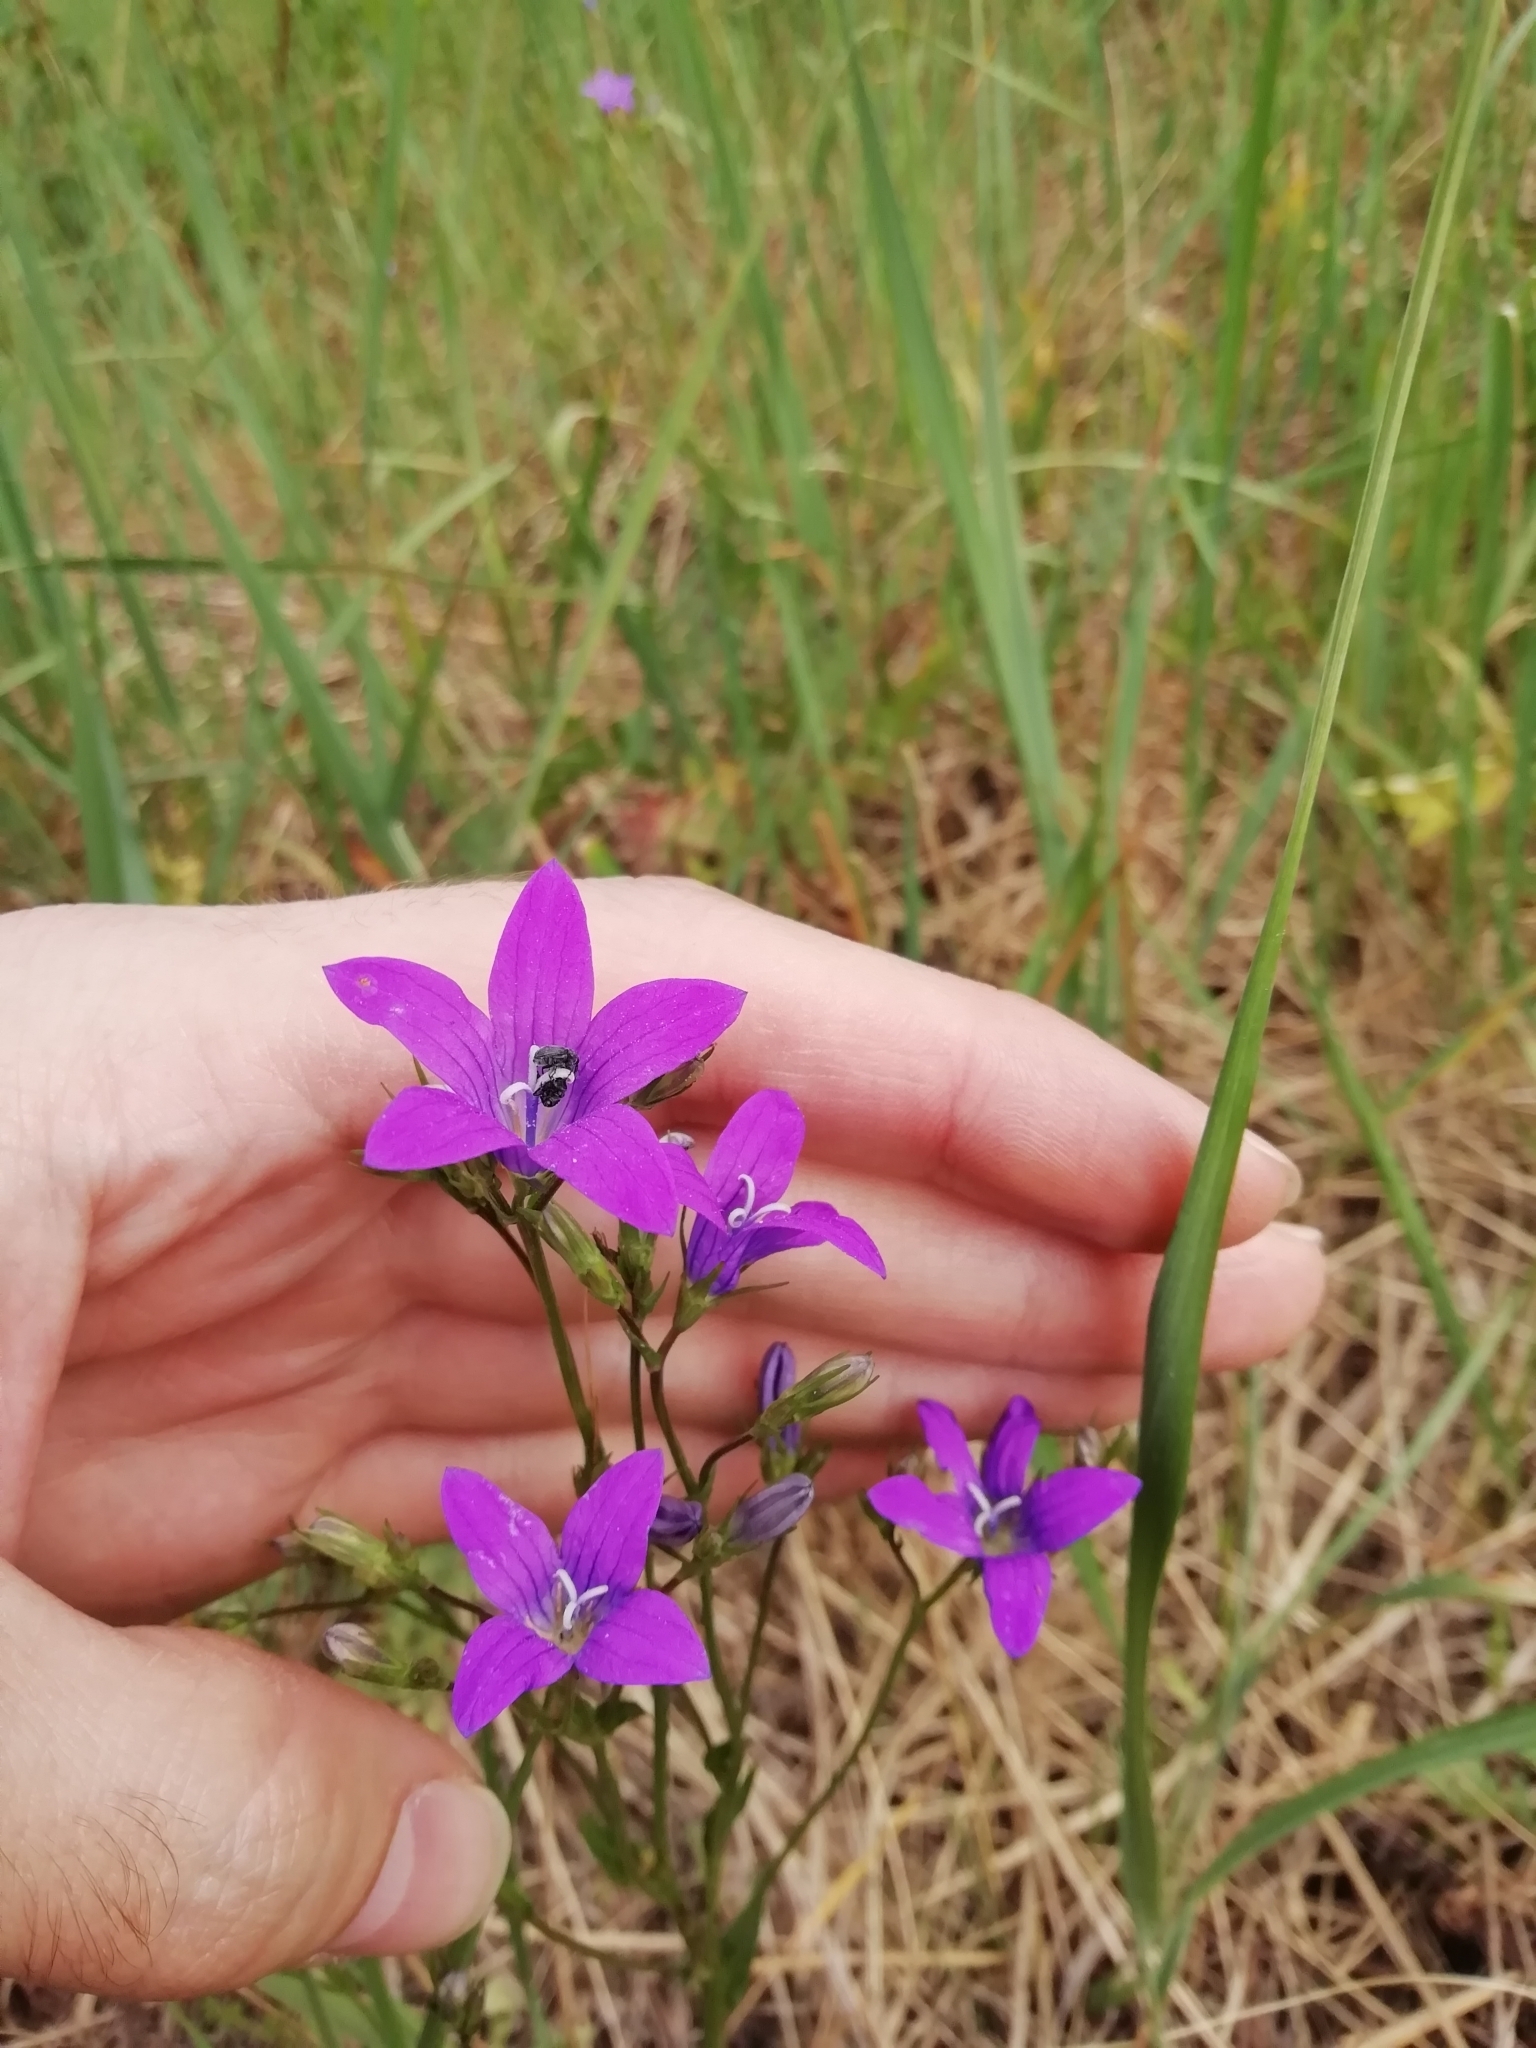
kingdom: Plantae
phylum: Tracheophyta
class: Magnoliopsida
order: Asterales
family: Campanulaceae
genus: Campanula
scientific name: Campanula patula
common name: Spreading bellflower
